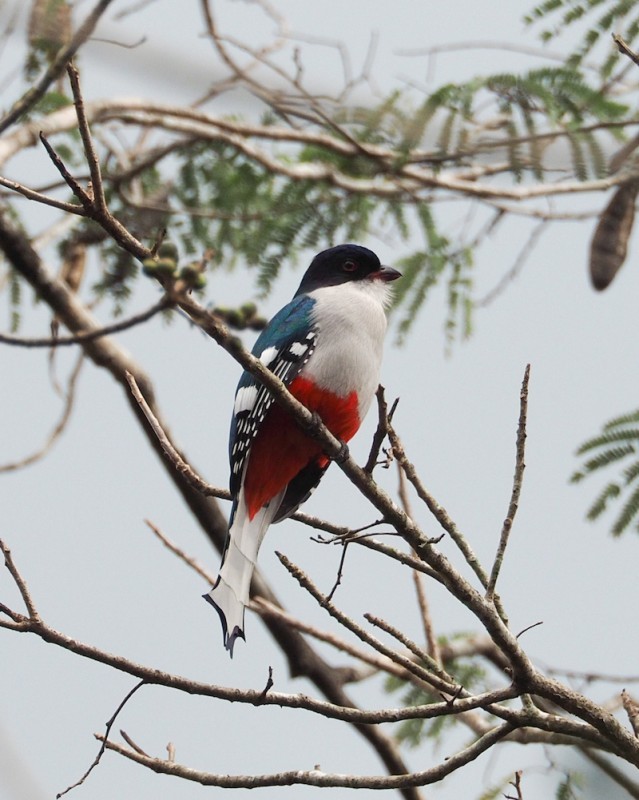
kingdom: Animalia
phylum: Chordata
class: Aves
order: Trogoniformes
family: Trogonidae
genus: Priotelus
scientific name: Priotelus temnurus
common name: Cuban trogon
